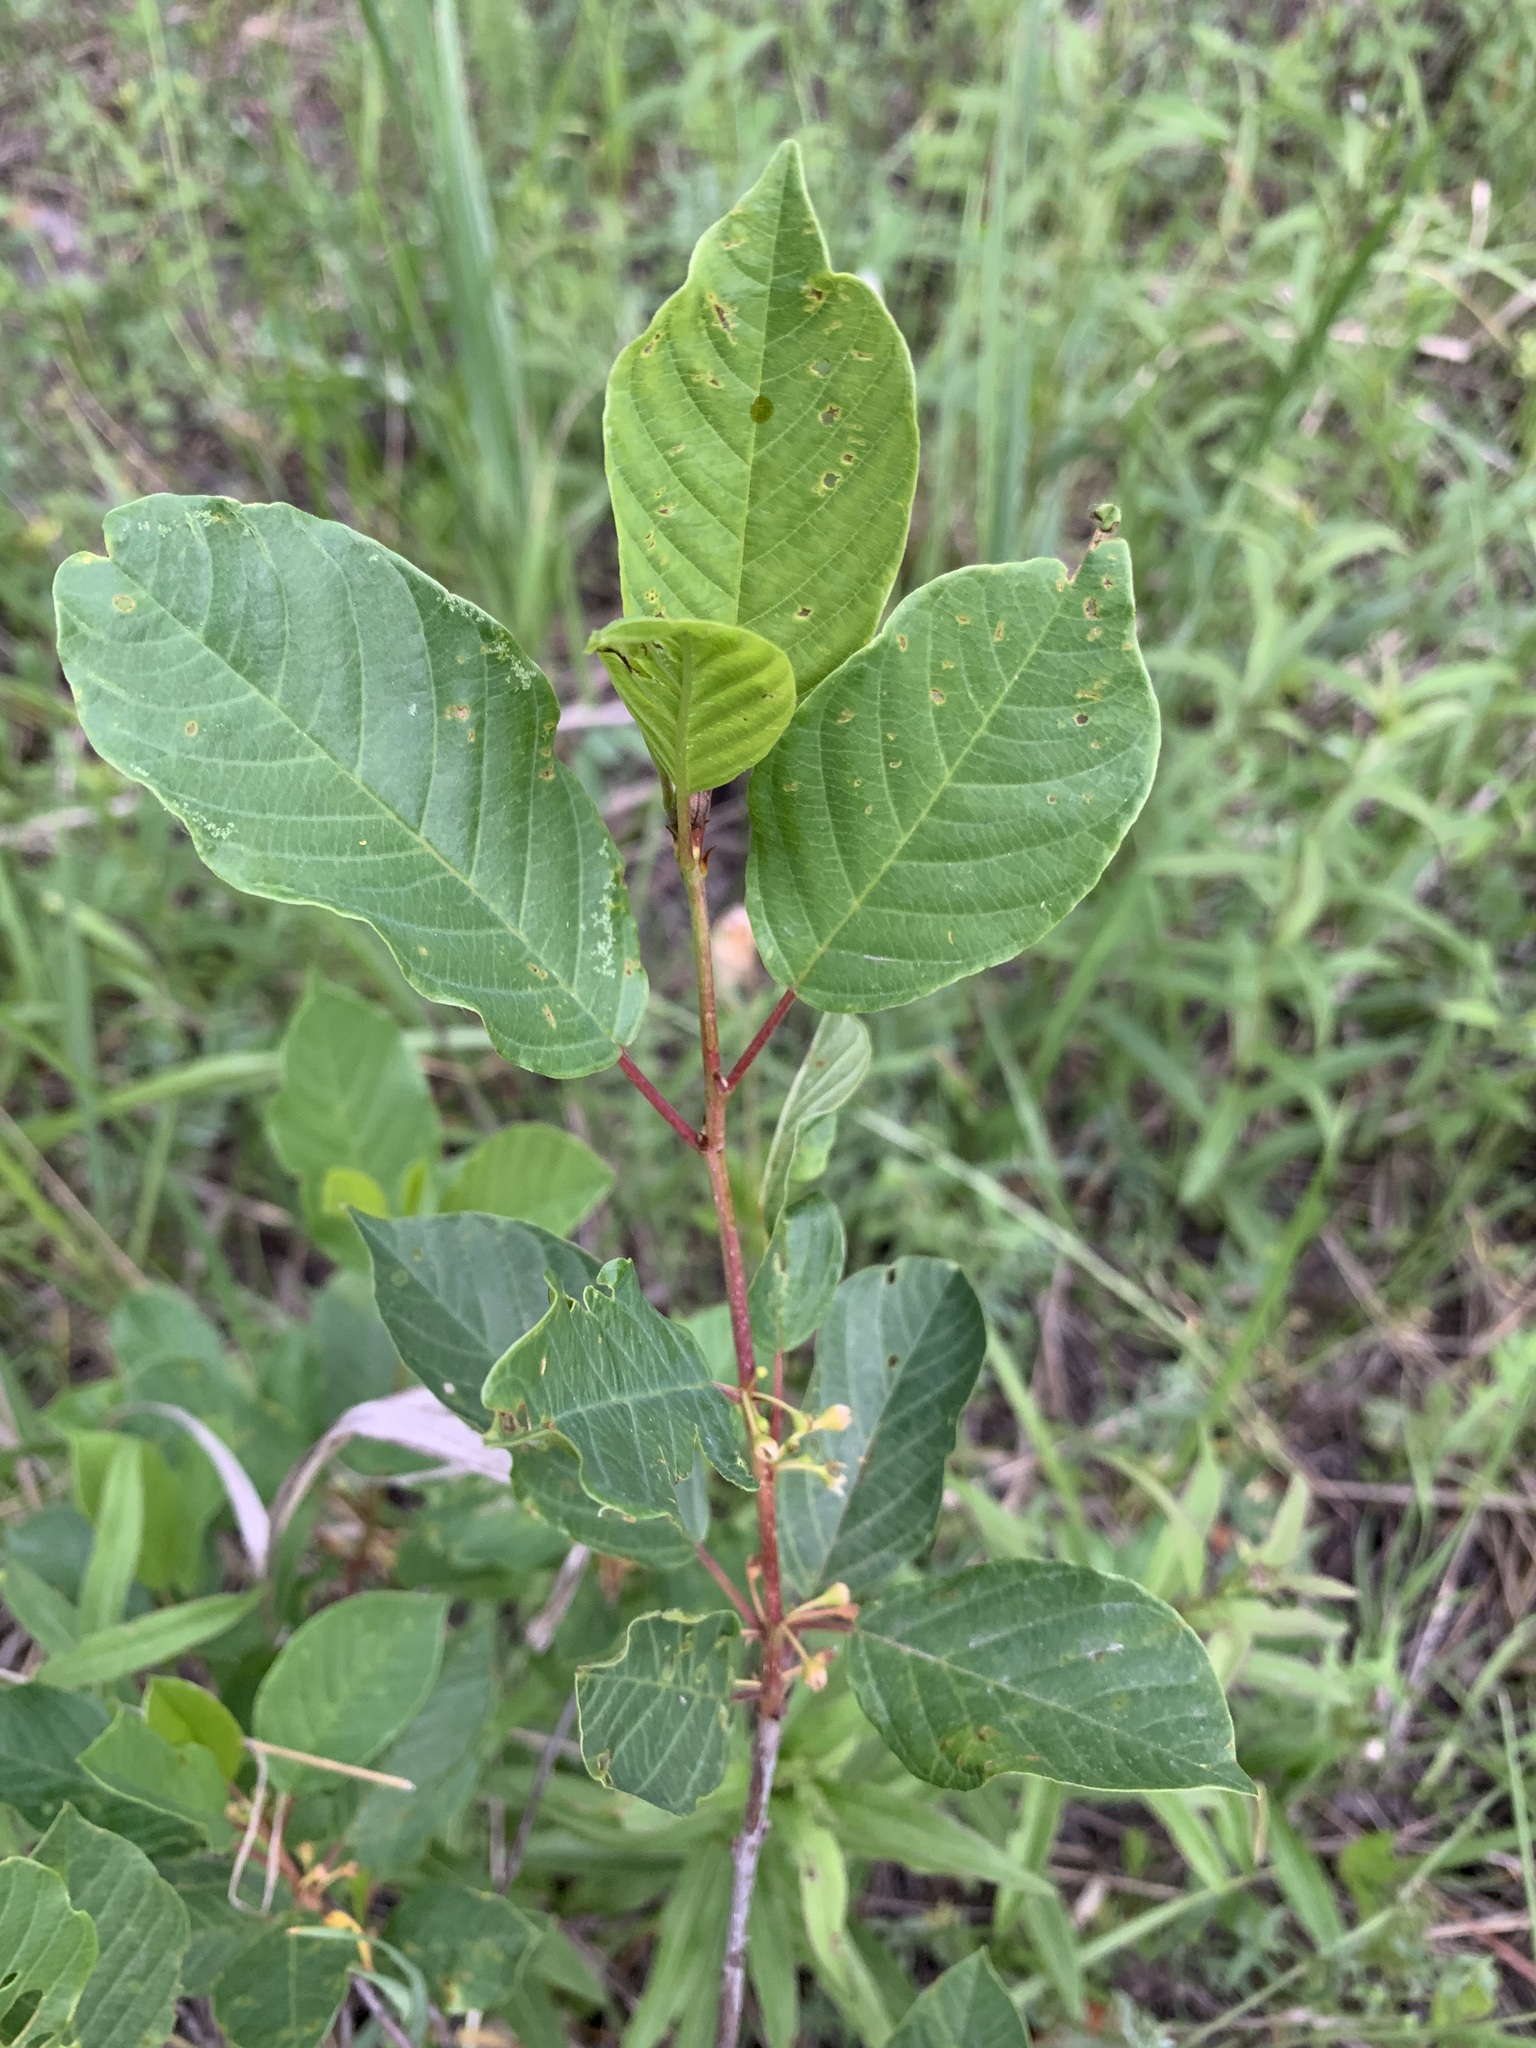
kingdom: Plantae
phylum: Tracheophyta
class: Magnoliopsida
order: Rosales
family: Rhamnaceae
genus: Frangula
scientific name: Frangula alnus
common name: Alder buckthorn
